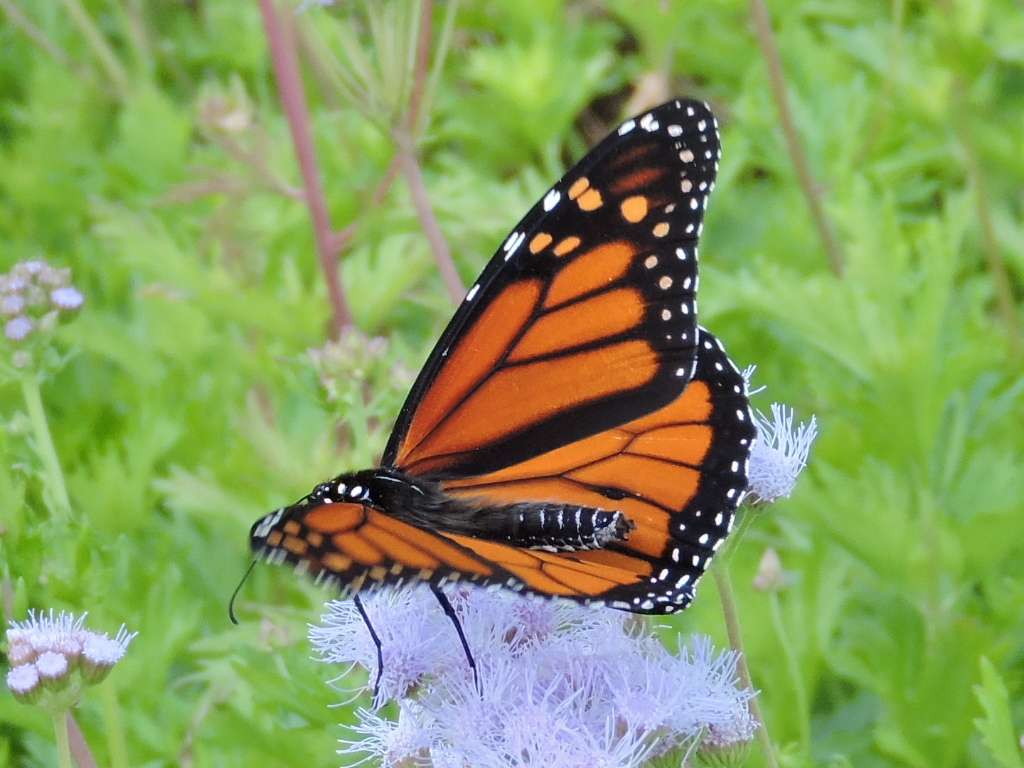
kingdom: Animalia
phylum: Arthropoda
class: Insecta
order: Lepidoptera
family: Nymphalidae
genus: Danaus
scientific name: Danaus plexippus
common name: Monarch
